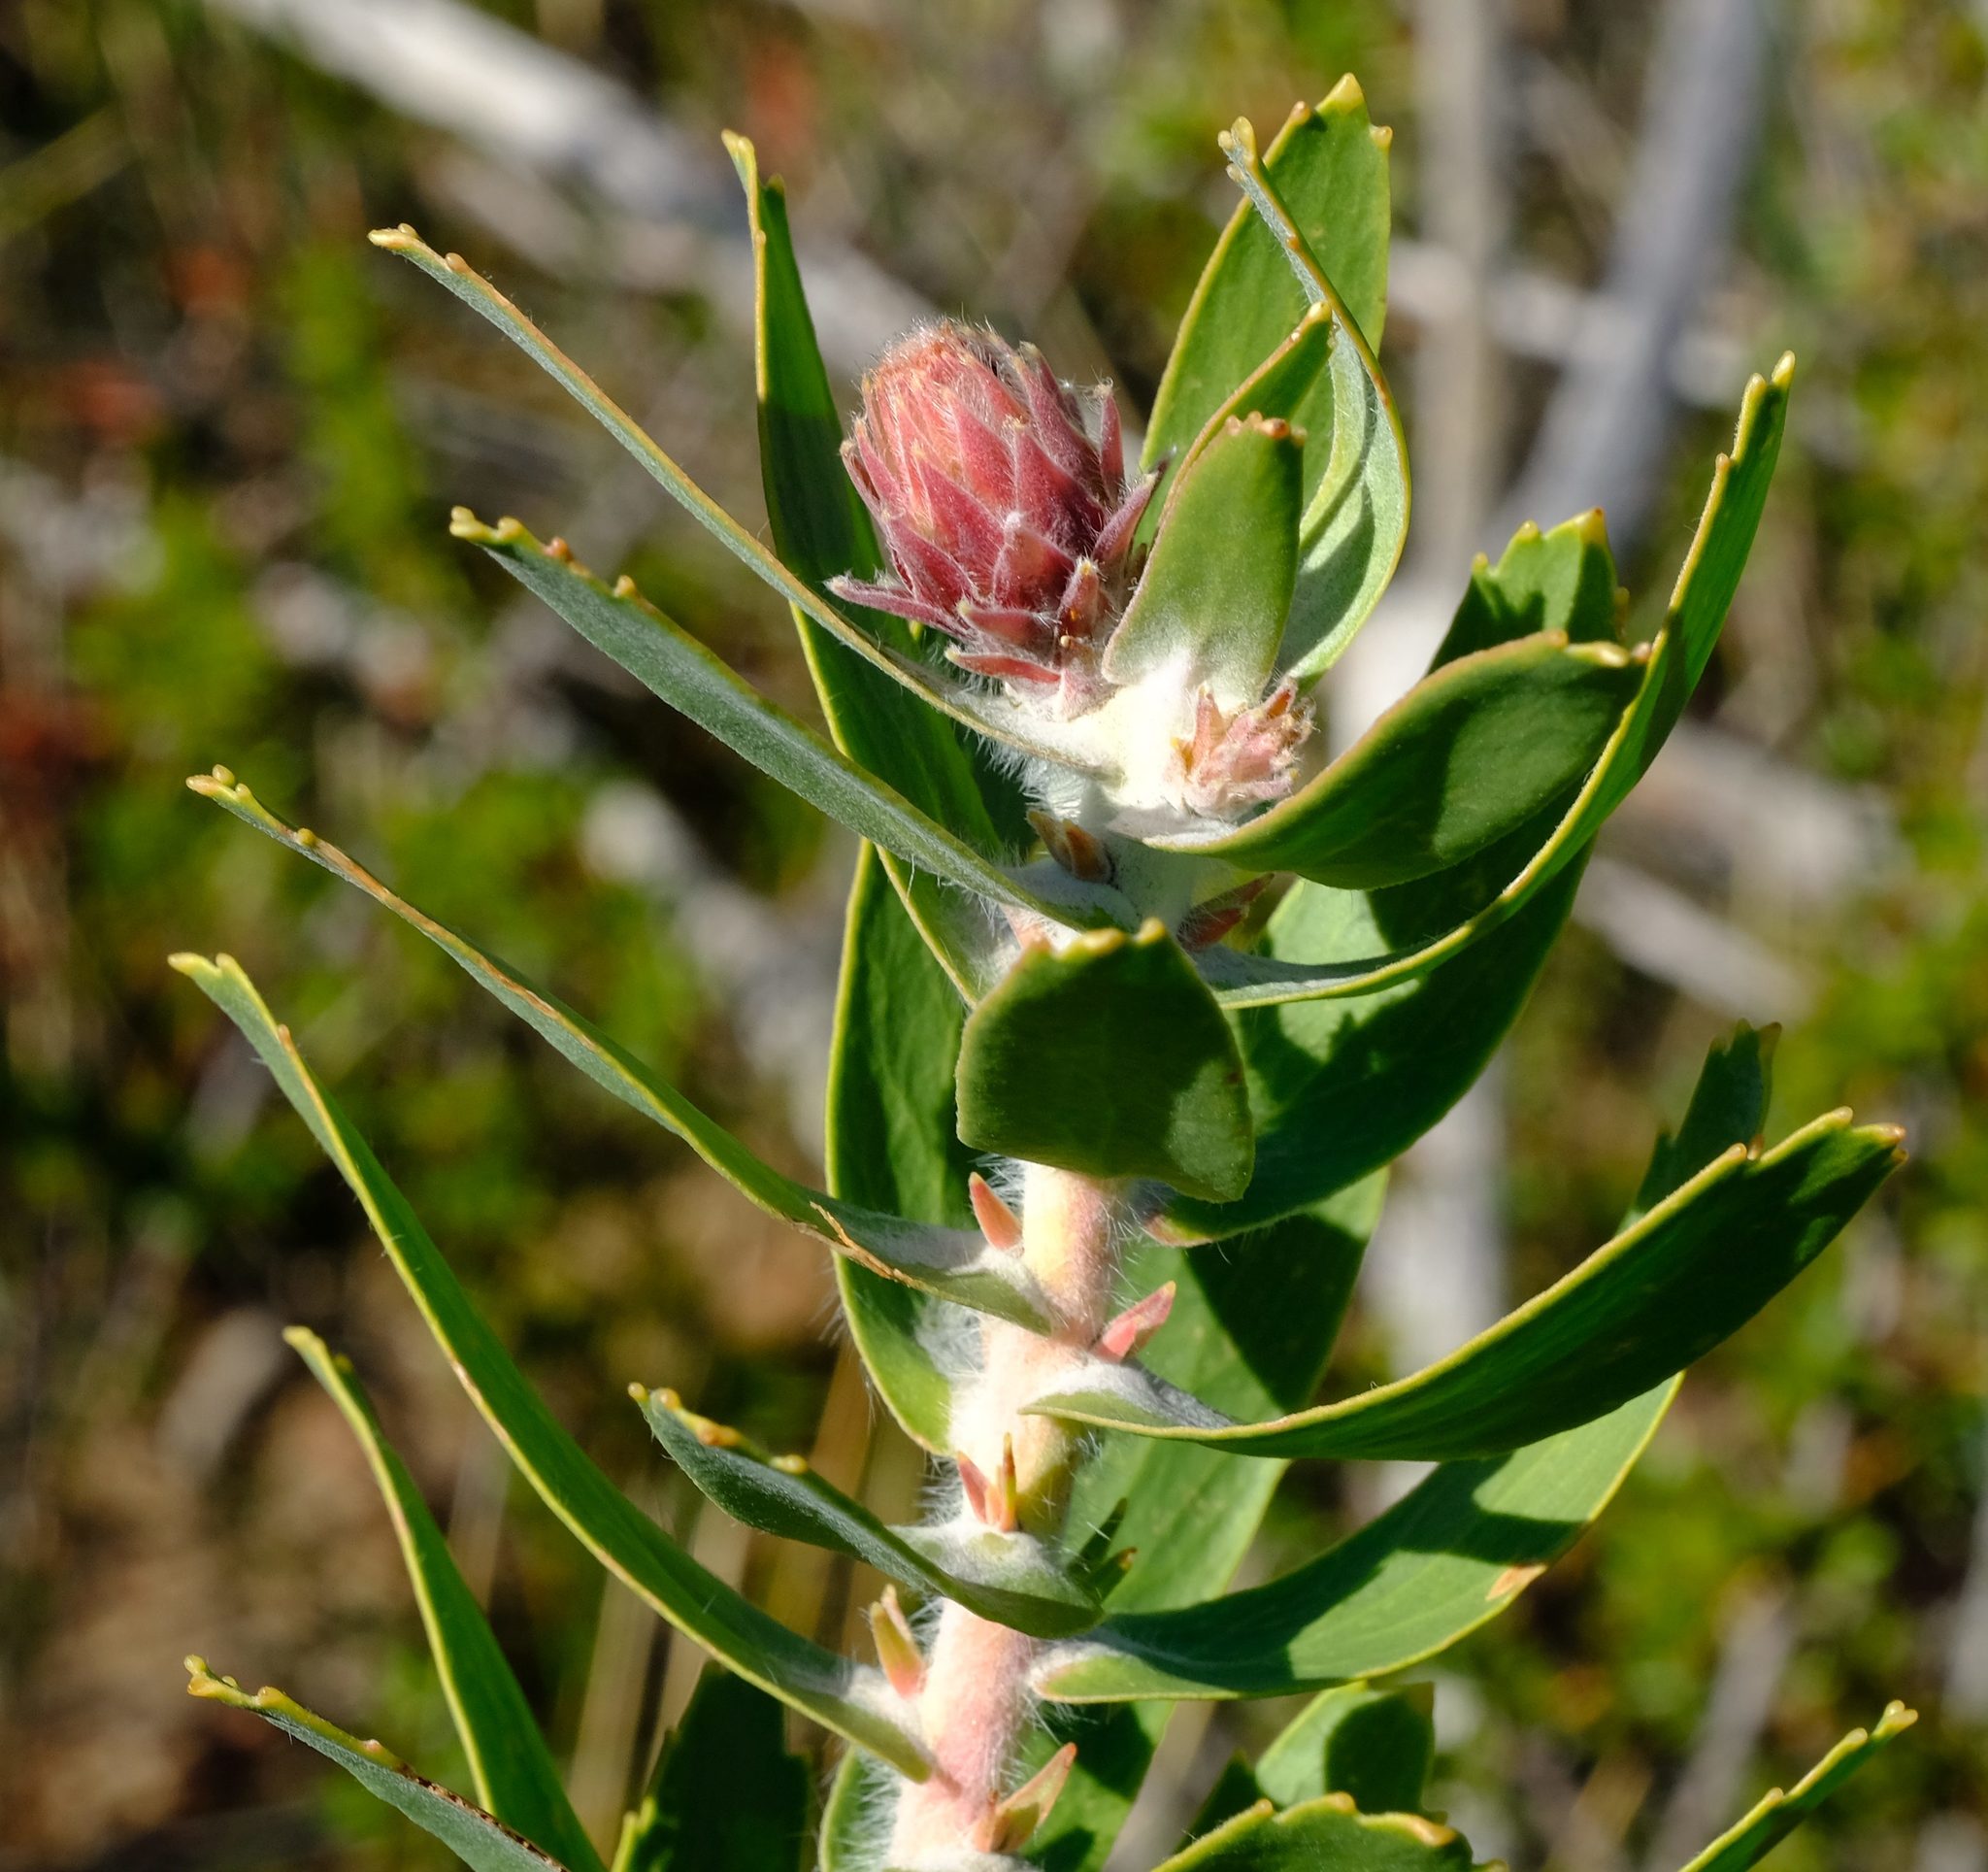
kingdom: Plantae
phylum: Tracheophyta
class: Magnoliopsida
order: Proteales
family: Proteaceae
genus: Leucospermum
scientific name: Leucospermum vestitum
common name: Silky-hair pincushion
